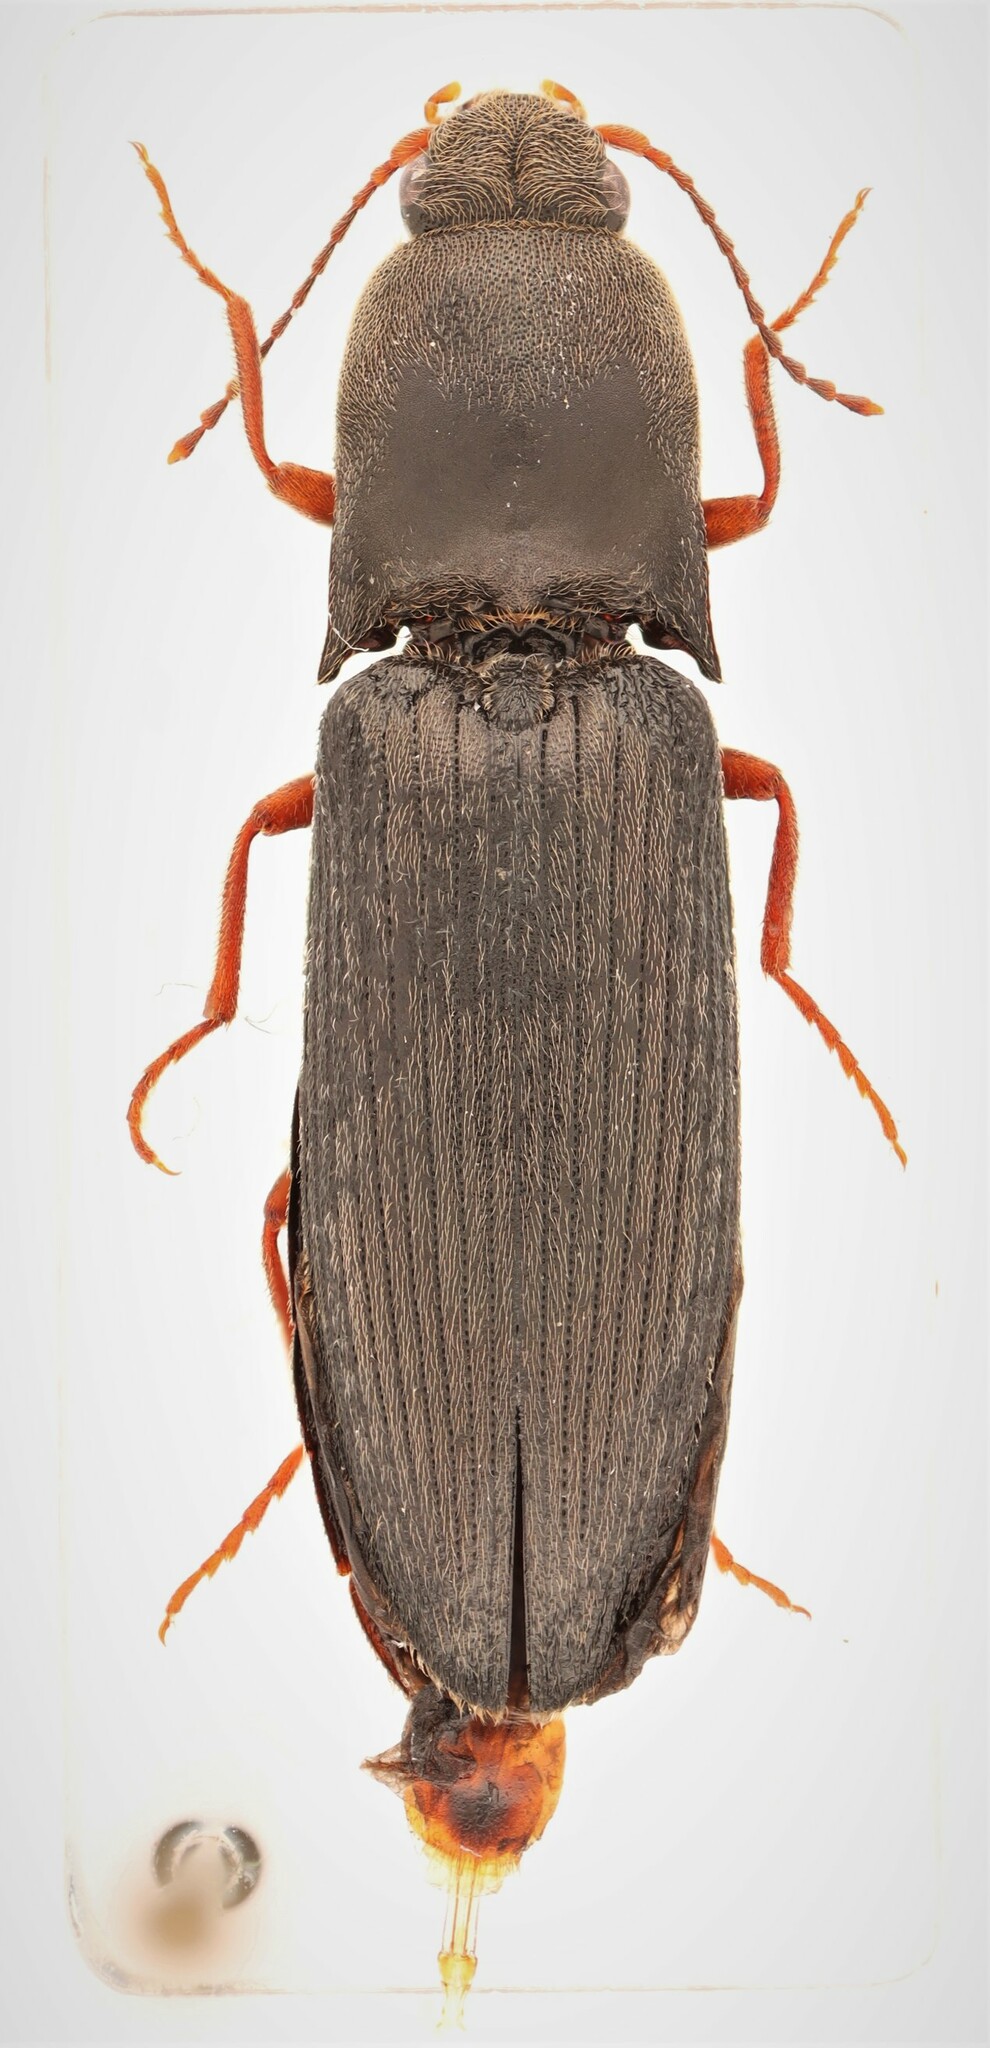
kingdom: Animalia
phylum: Arthropoda
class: Insecta
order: Coleoptera
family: Elateridae
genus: Agriotes
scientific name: Agriotes stabilis
